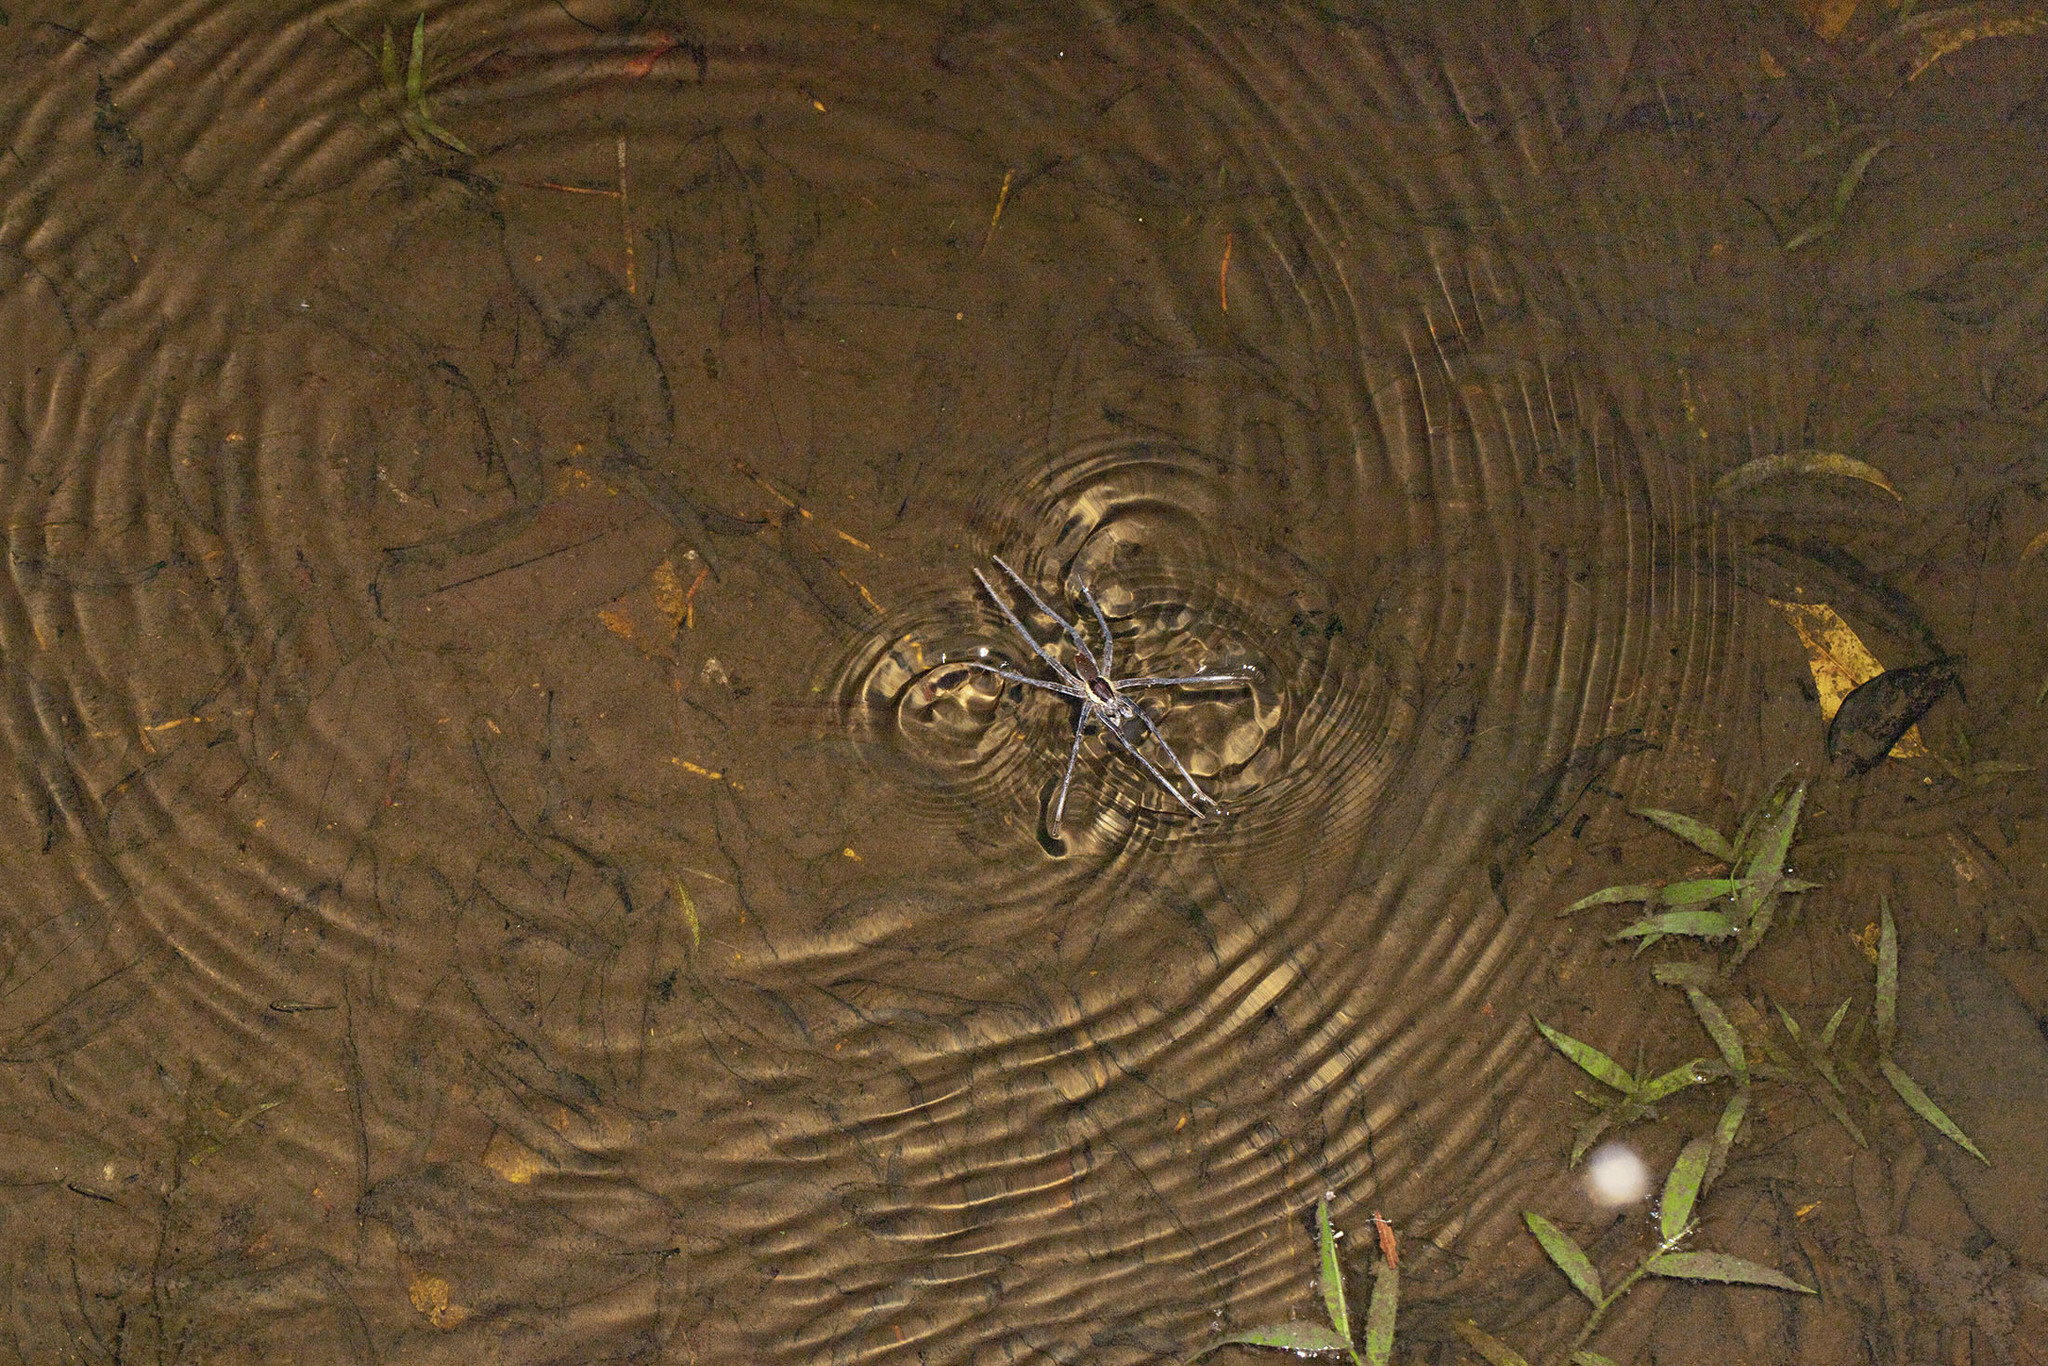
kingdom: Animalia
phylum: Arthropoda
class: Arachnida
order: Araneae
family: Ctenidae
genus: Ancylometes
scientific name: Ancylometes rufus
